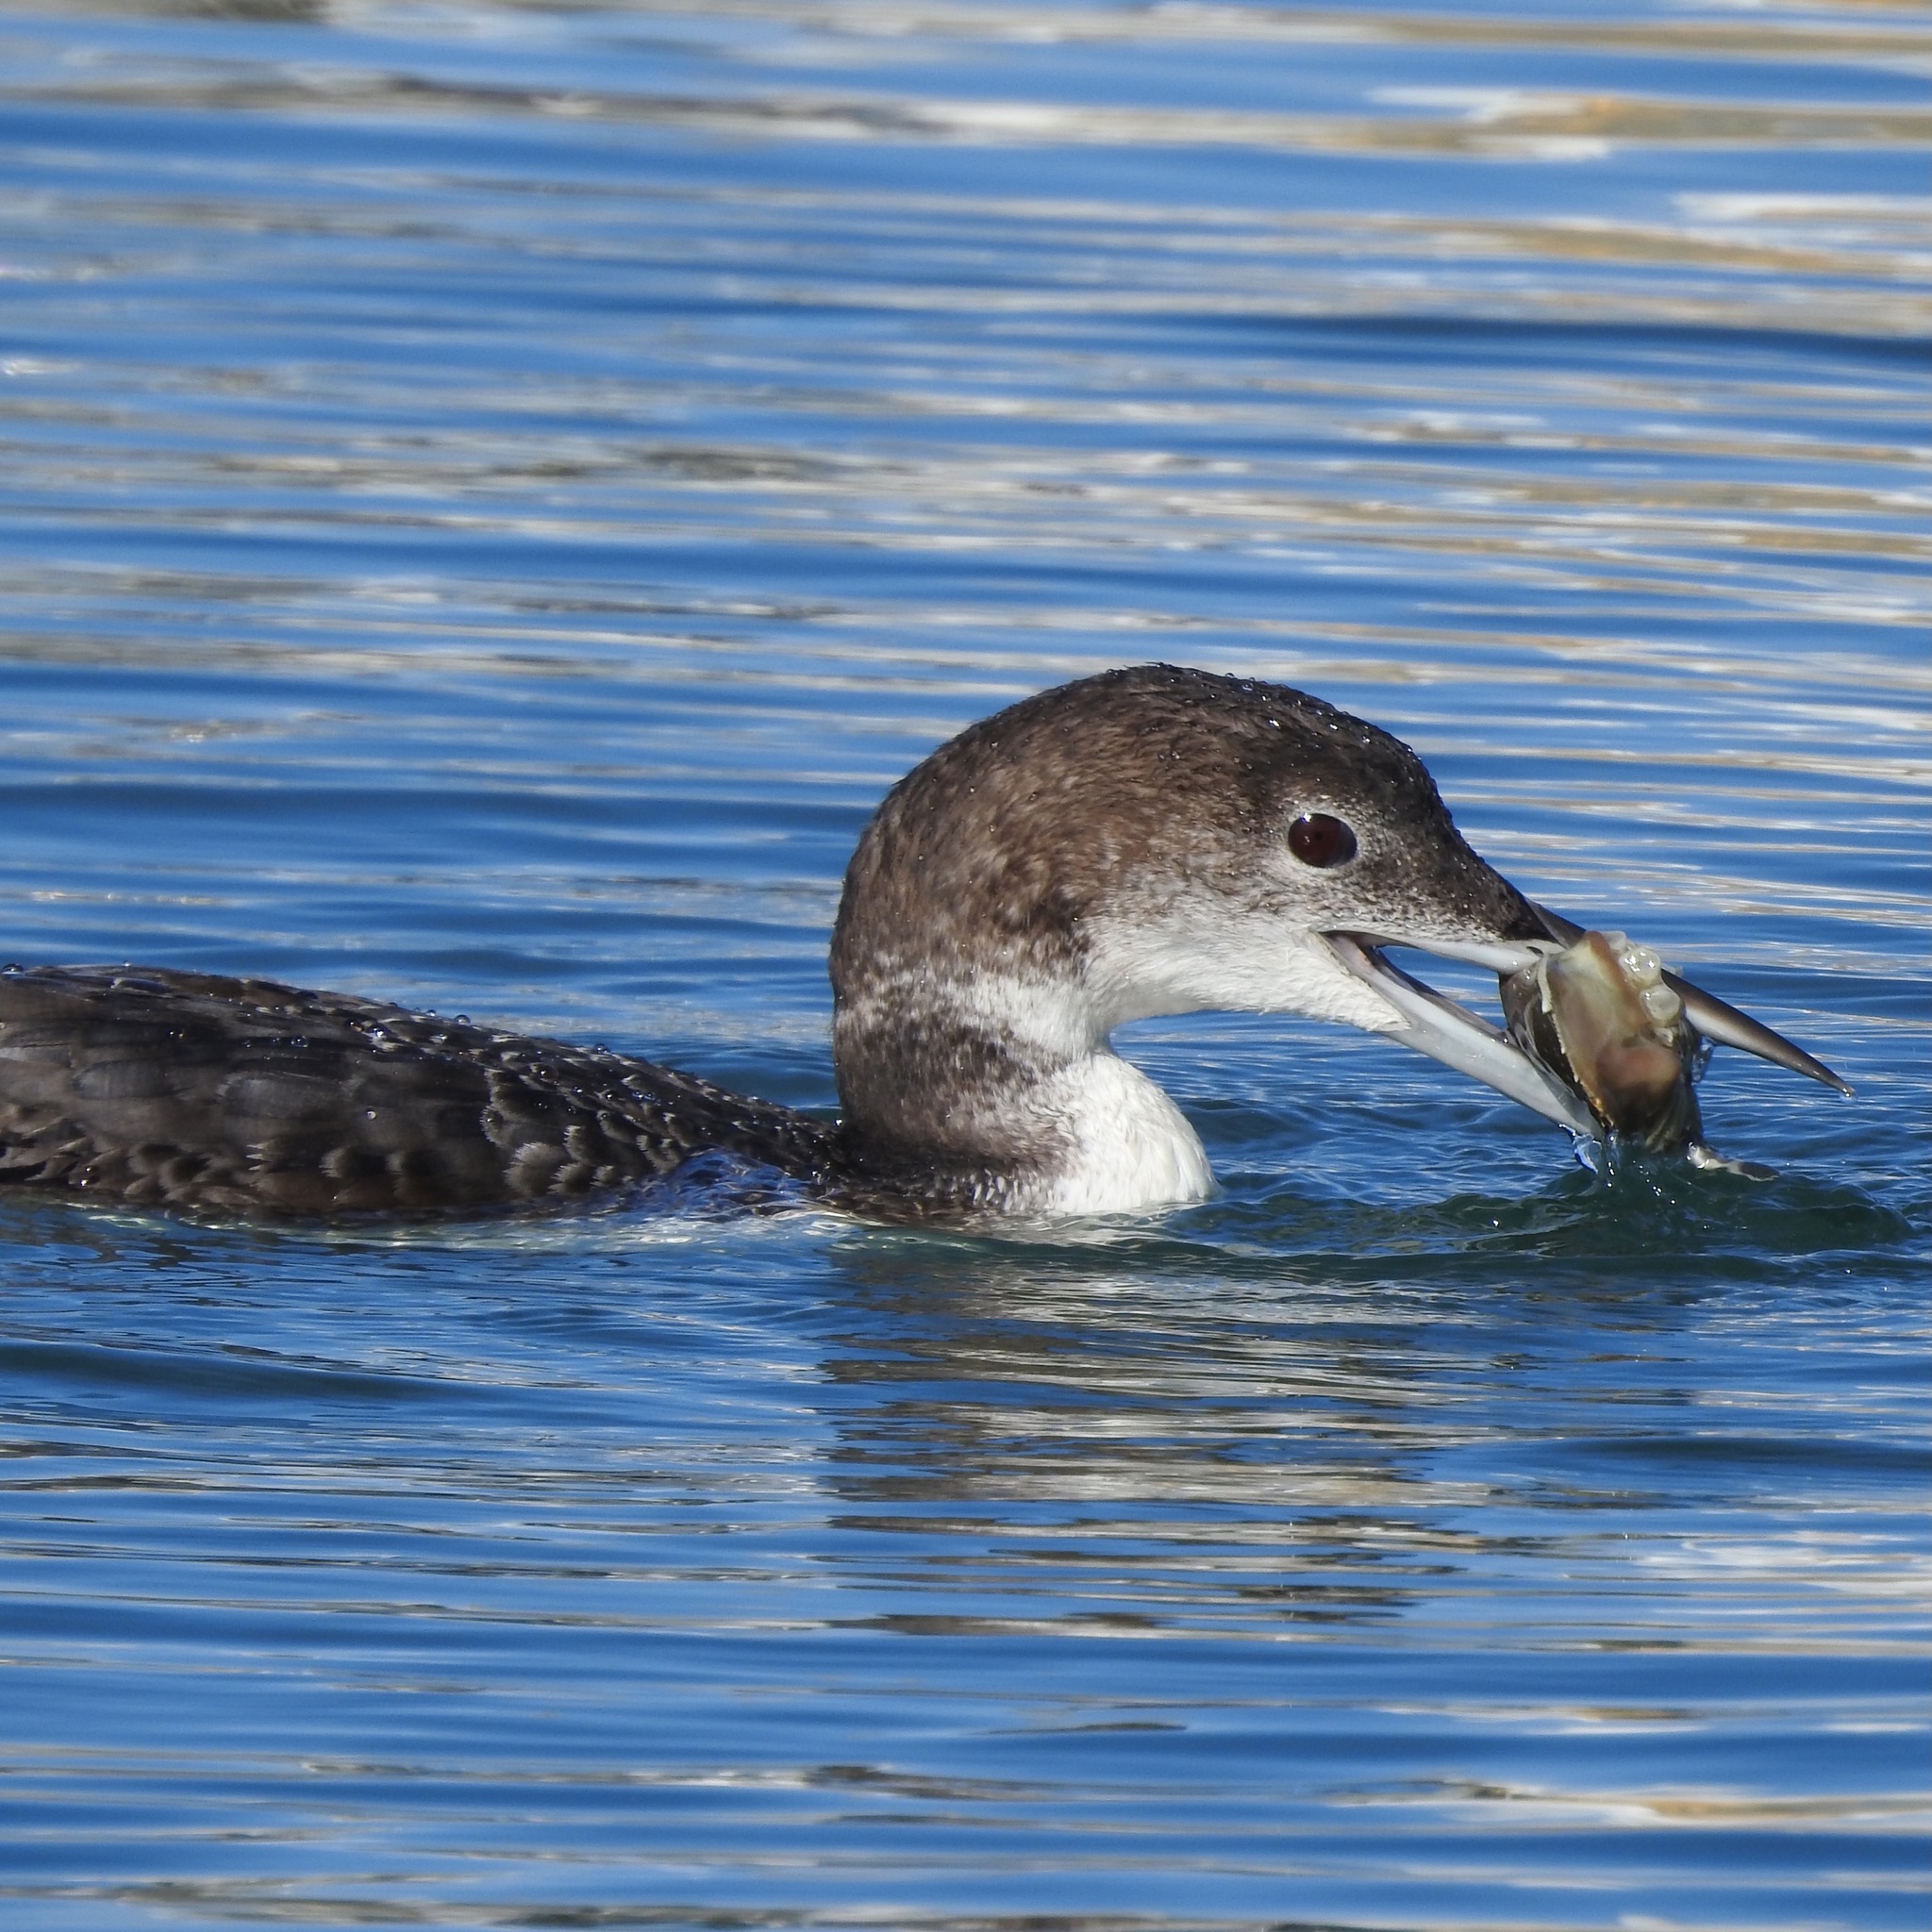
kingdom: Animalia
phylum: Chordata
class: Aves
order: Gaviiformes
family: Gaviidae
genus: Gavia
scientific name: Gavia immer
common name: Common loon
